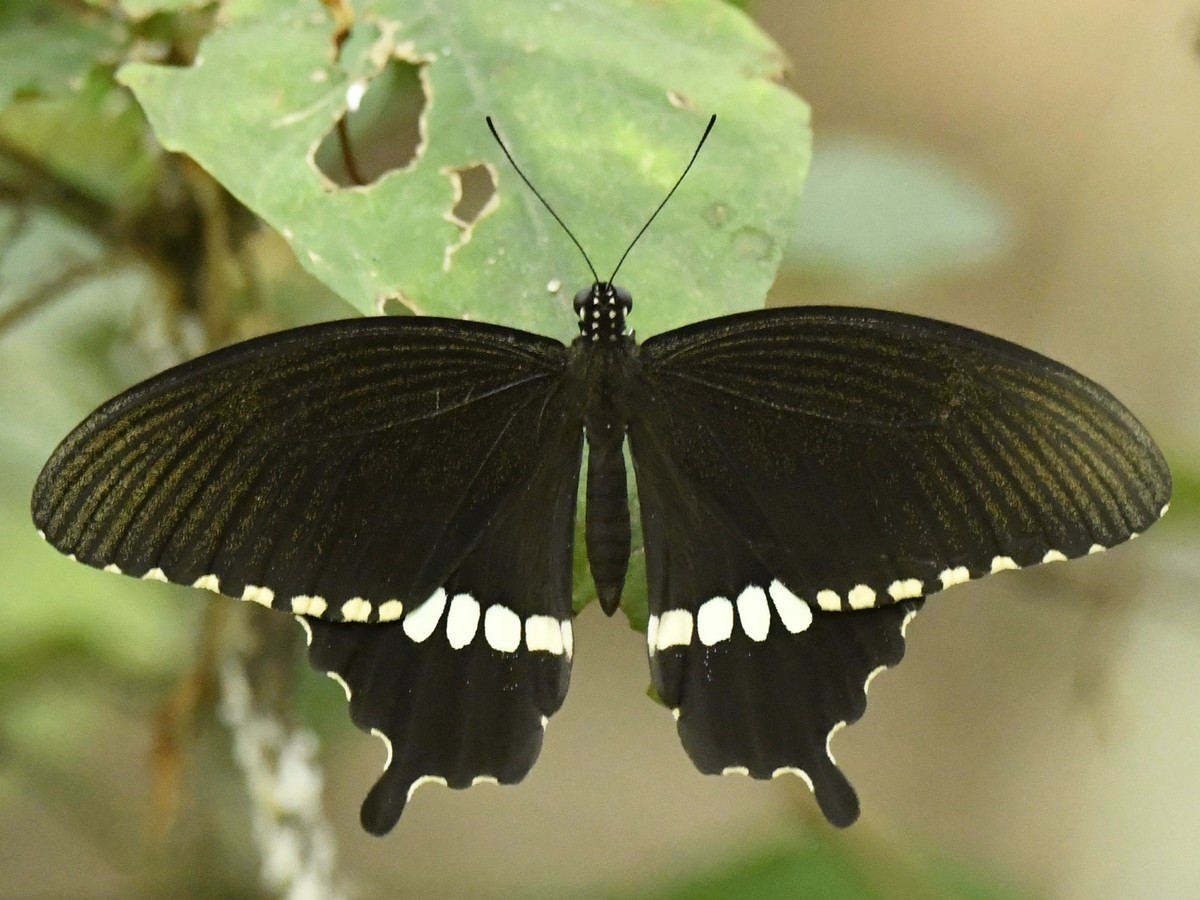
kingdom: Animalia
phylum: Arthropoda
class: Insecta
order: Lepidoptera
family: Papilionidae
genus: Papilio
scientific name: Papilio polytes
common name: Common mormon
